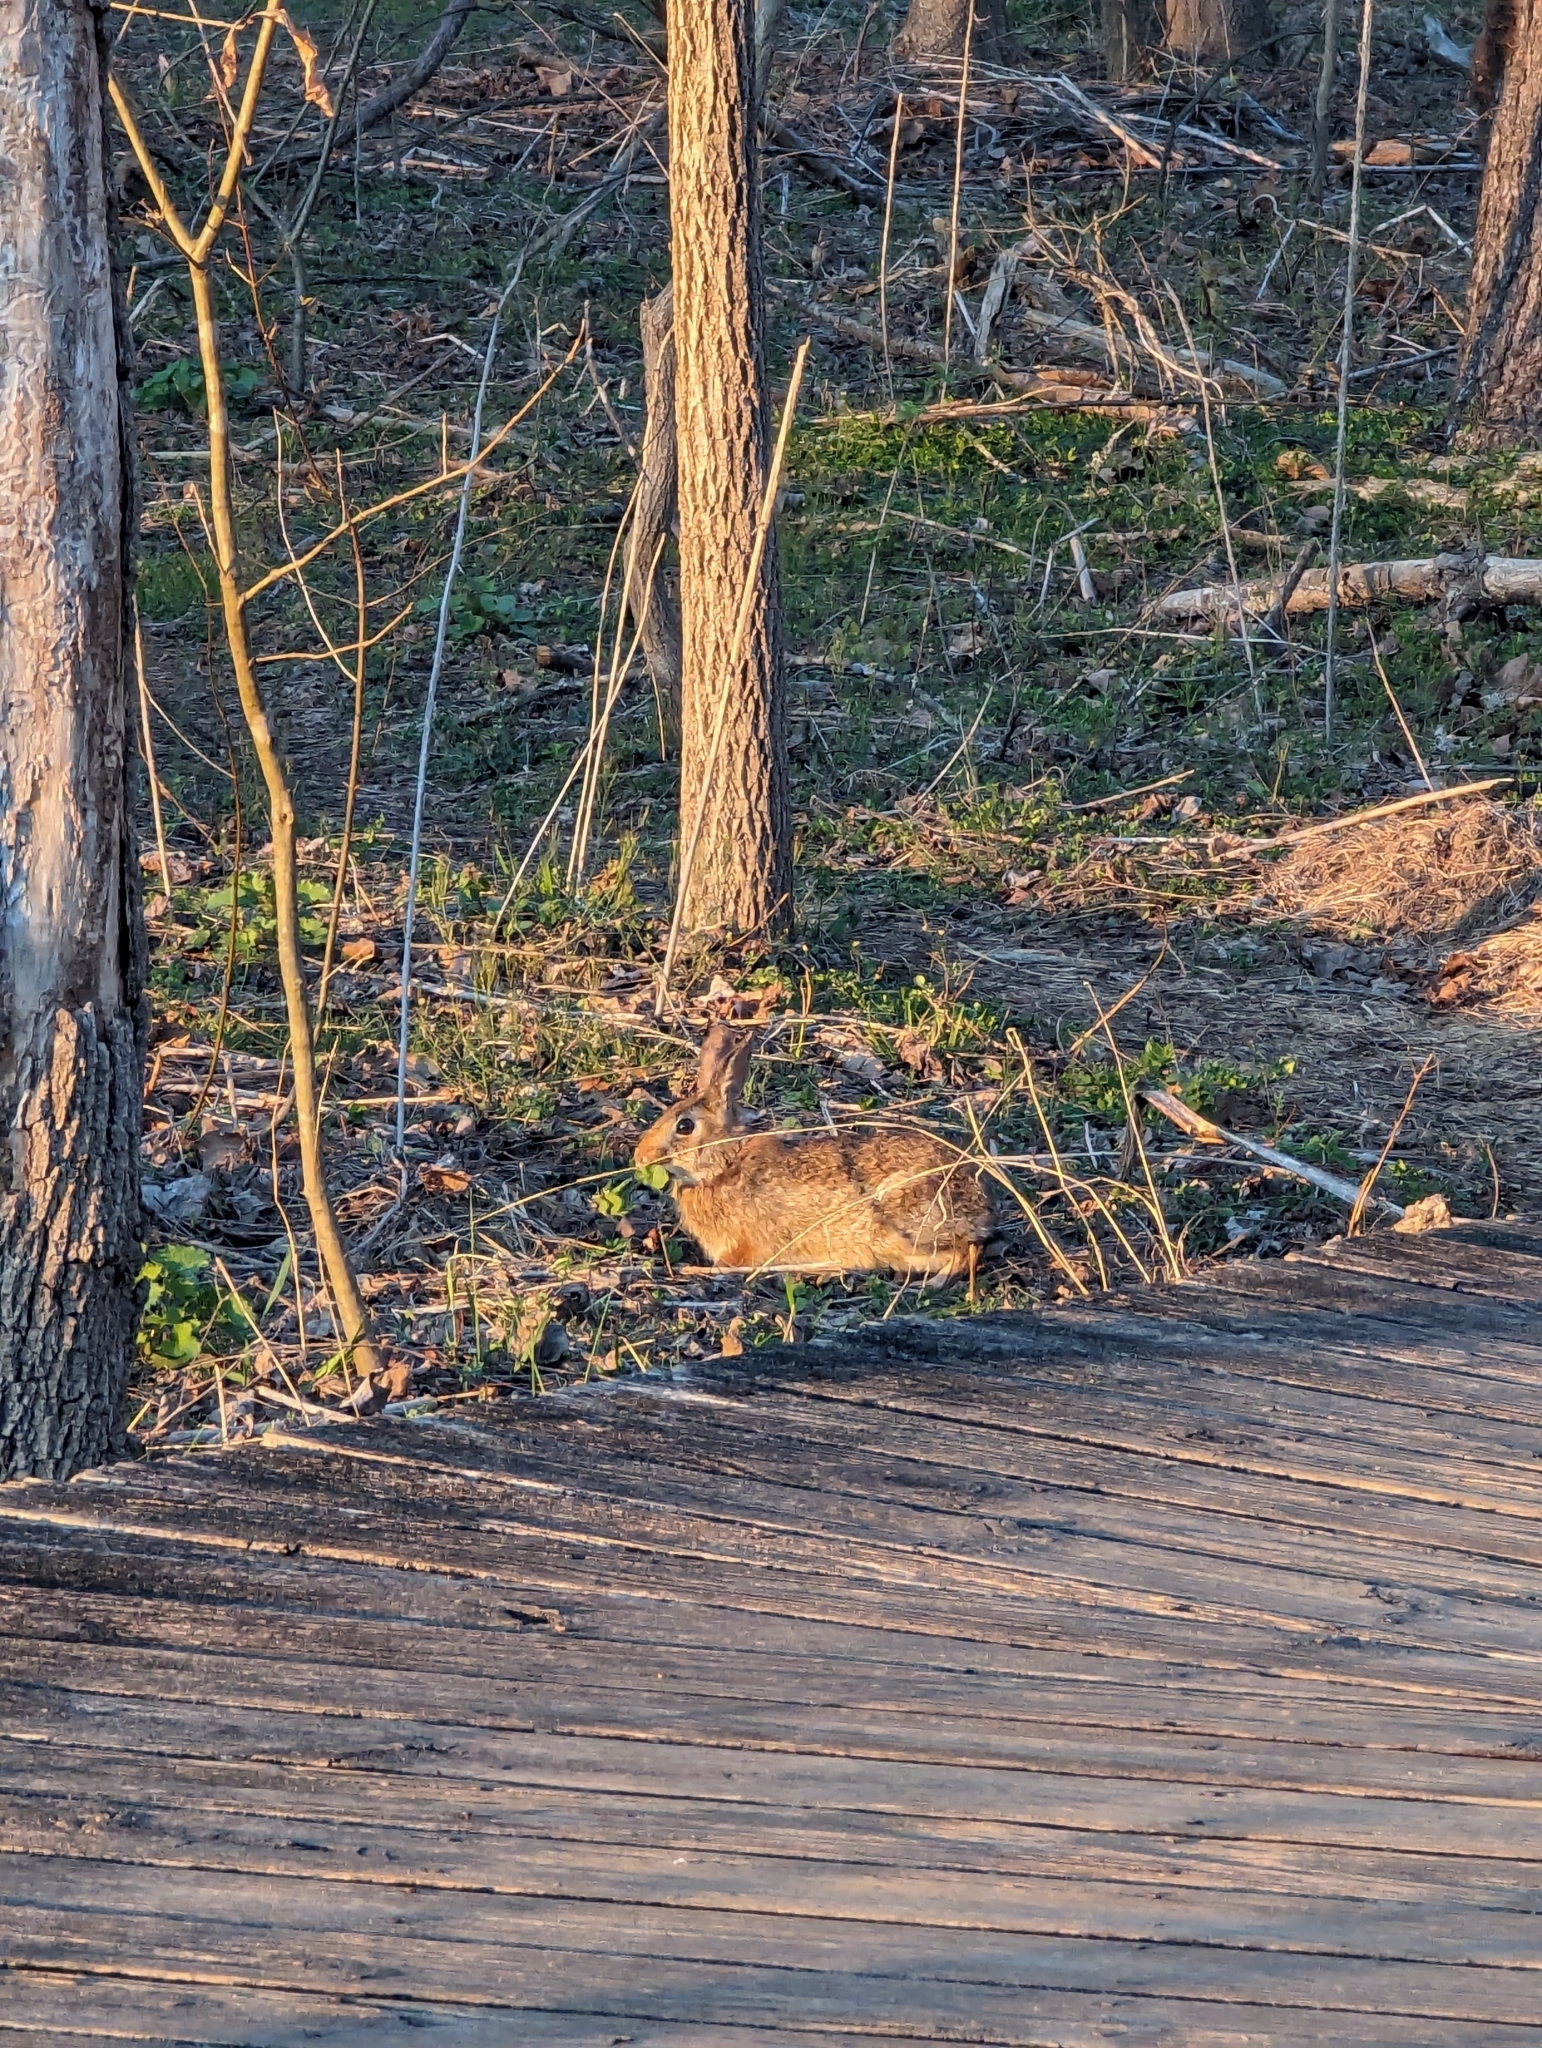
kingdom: Animalia
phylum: Chordata
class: Mammalia
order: Lagomorpha
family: Leporidae
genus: Sylvilagus
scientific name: Sylvilagus floridanus
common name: Eastern cottontail
